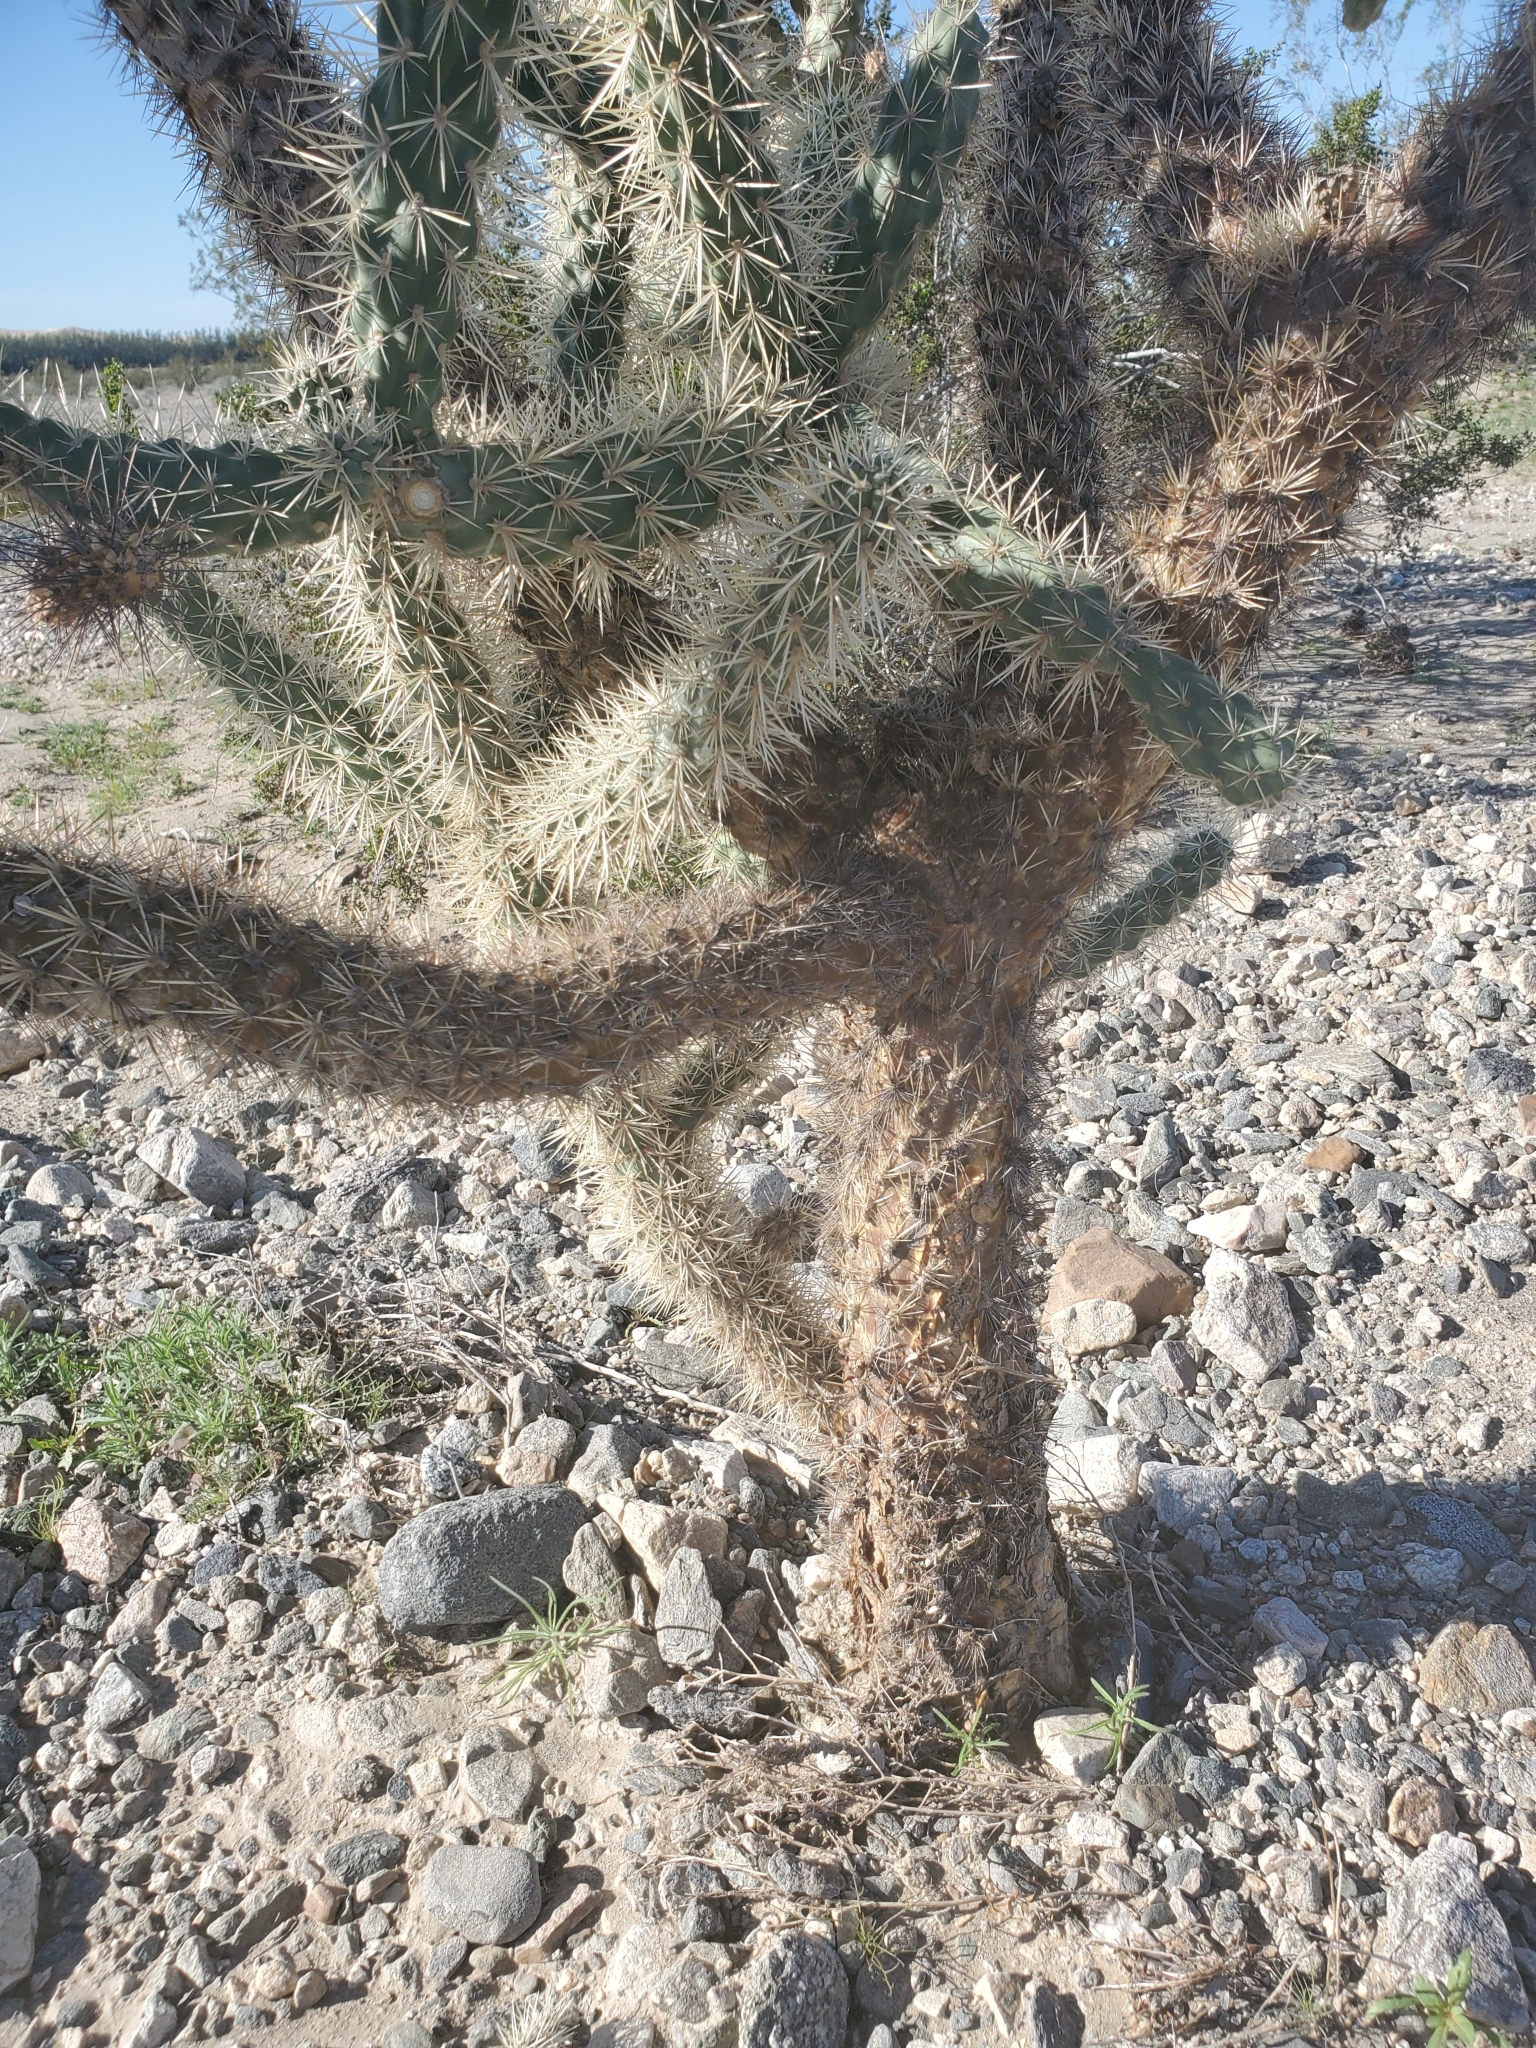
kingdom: Plantae
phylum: Tracheophyta
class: Magnoliopsida
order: Caryophyllales
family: Cactaceae
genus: Cylindropuntia
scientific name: Cylindropuntia munzii
